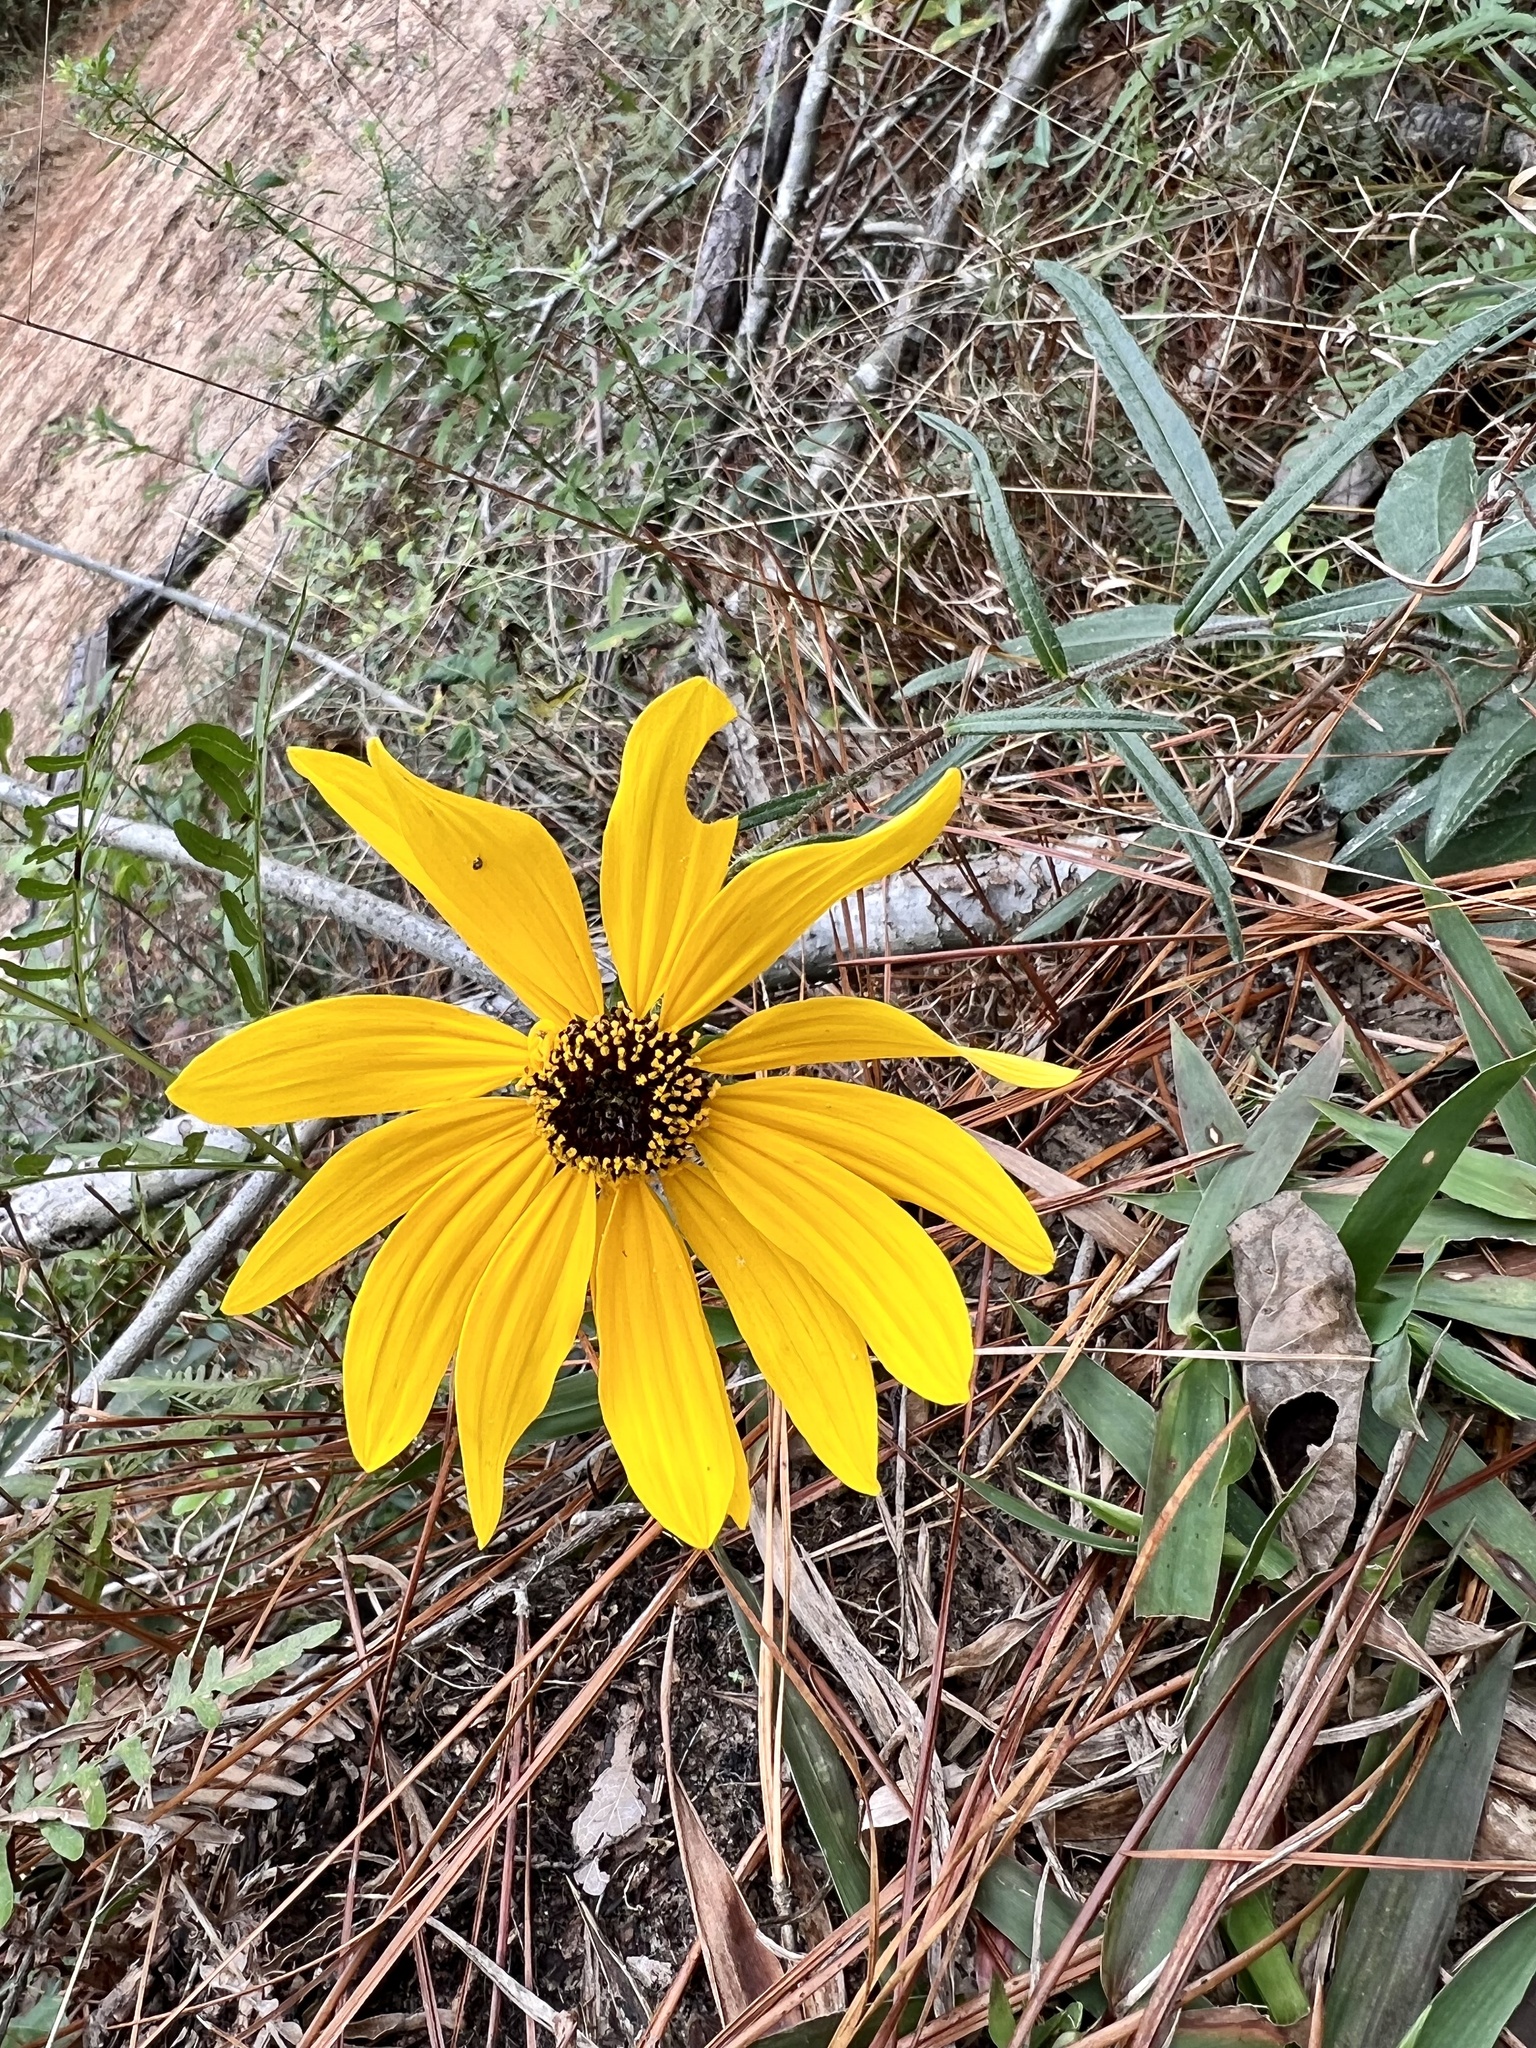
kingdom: Plantae
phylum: Tracheophyta
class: Magnoliopsida
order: Asterales
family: Asteraceae
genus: Helianthus
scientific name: Helianthus angustifolius
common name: Swamp sunflower
